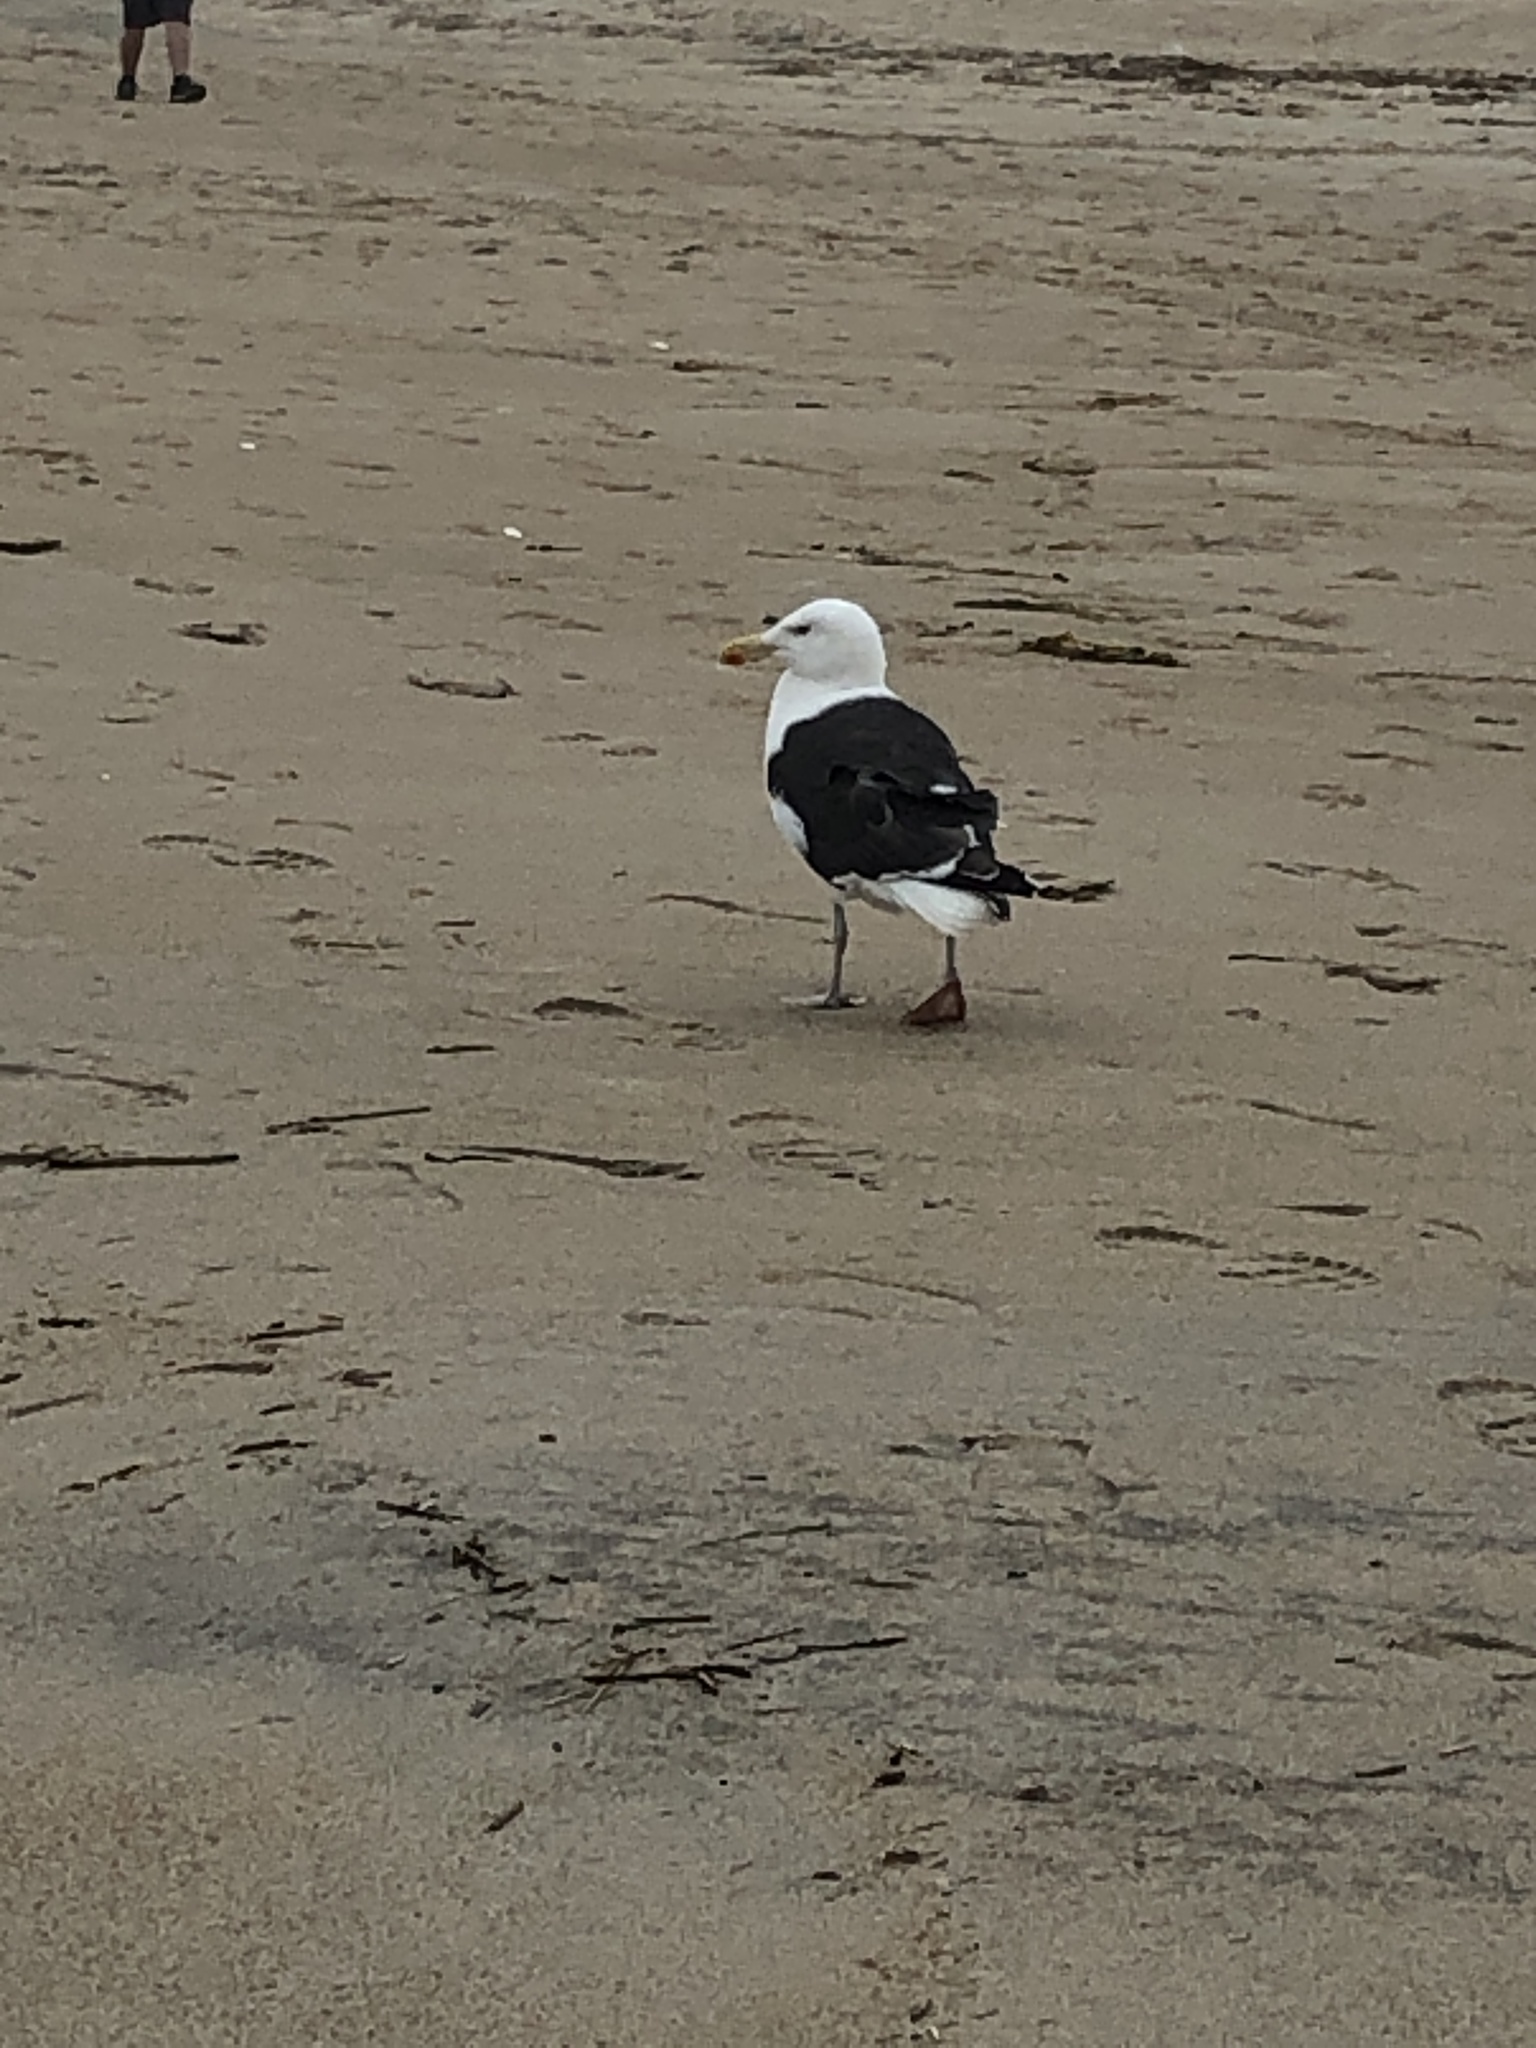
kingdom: Animalia
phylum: Chordata
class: Aves
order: Charadriiformes
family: Laridae
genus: Larus
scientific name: Larus marinus
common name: Great black-backed gull
